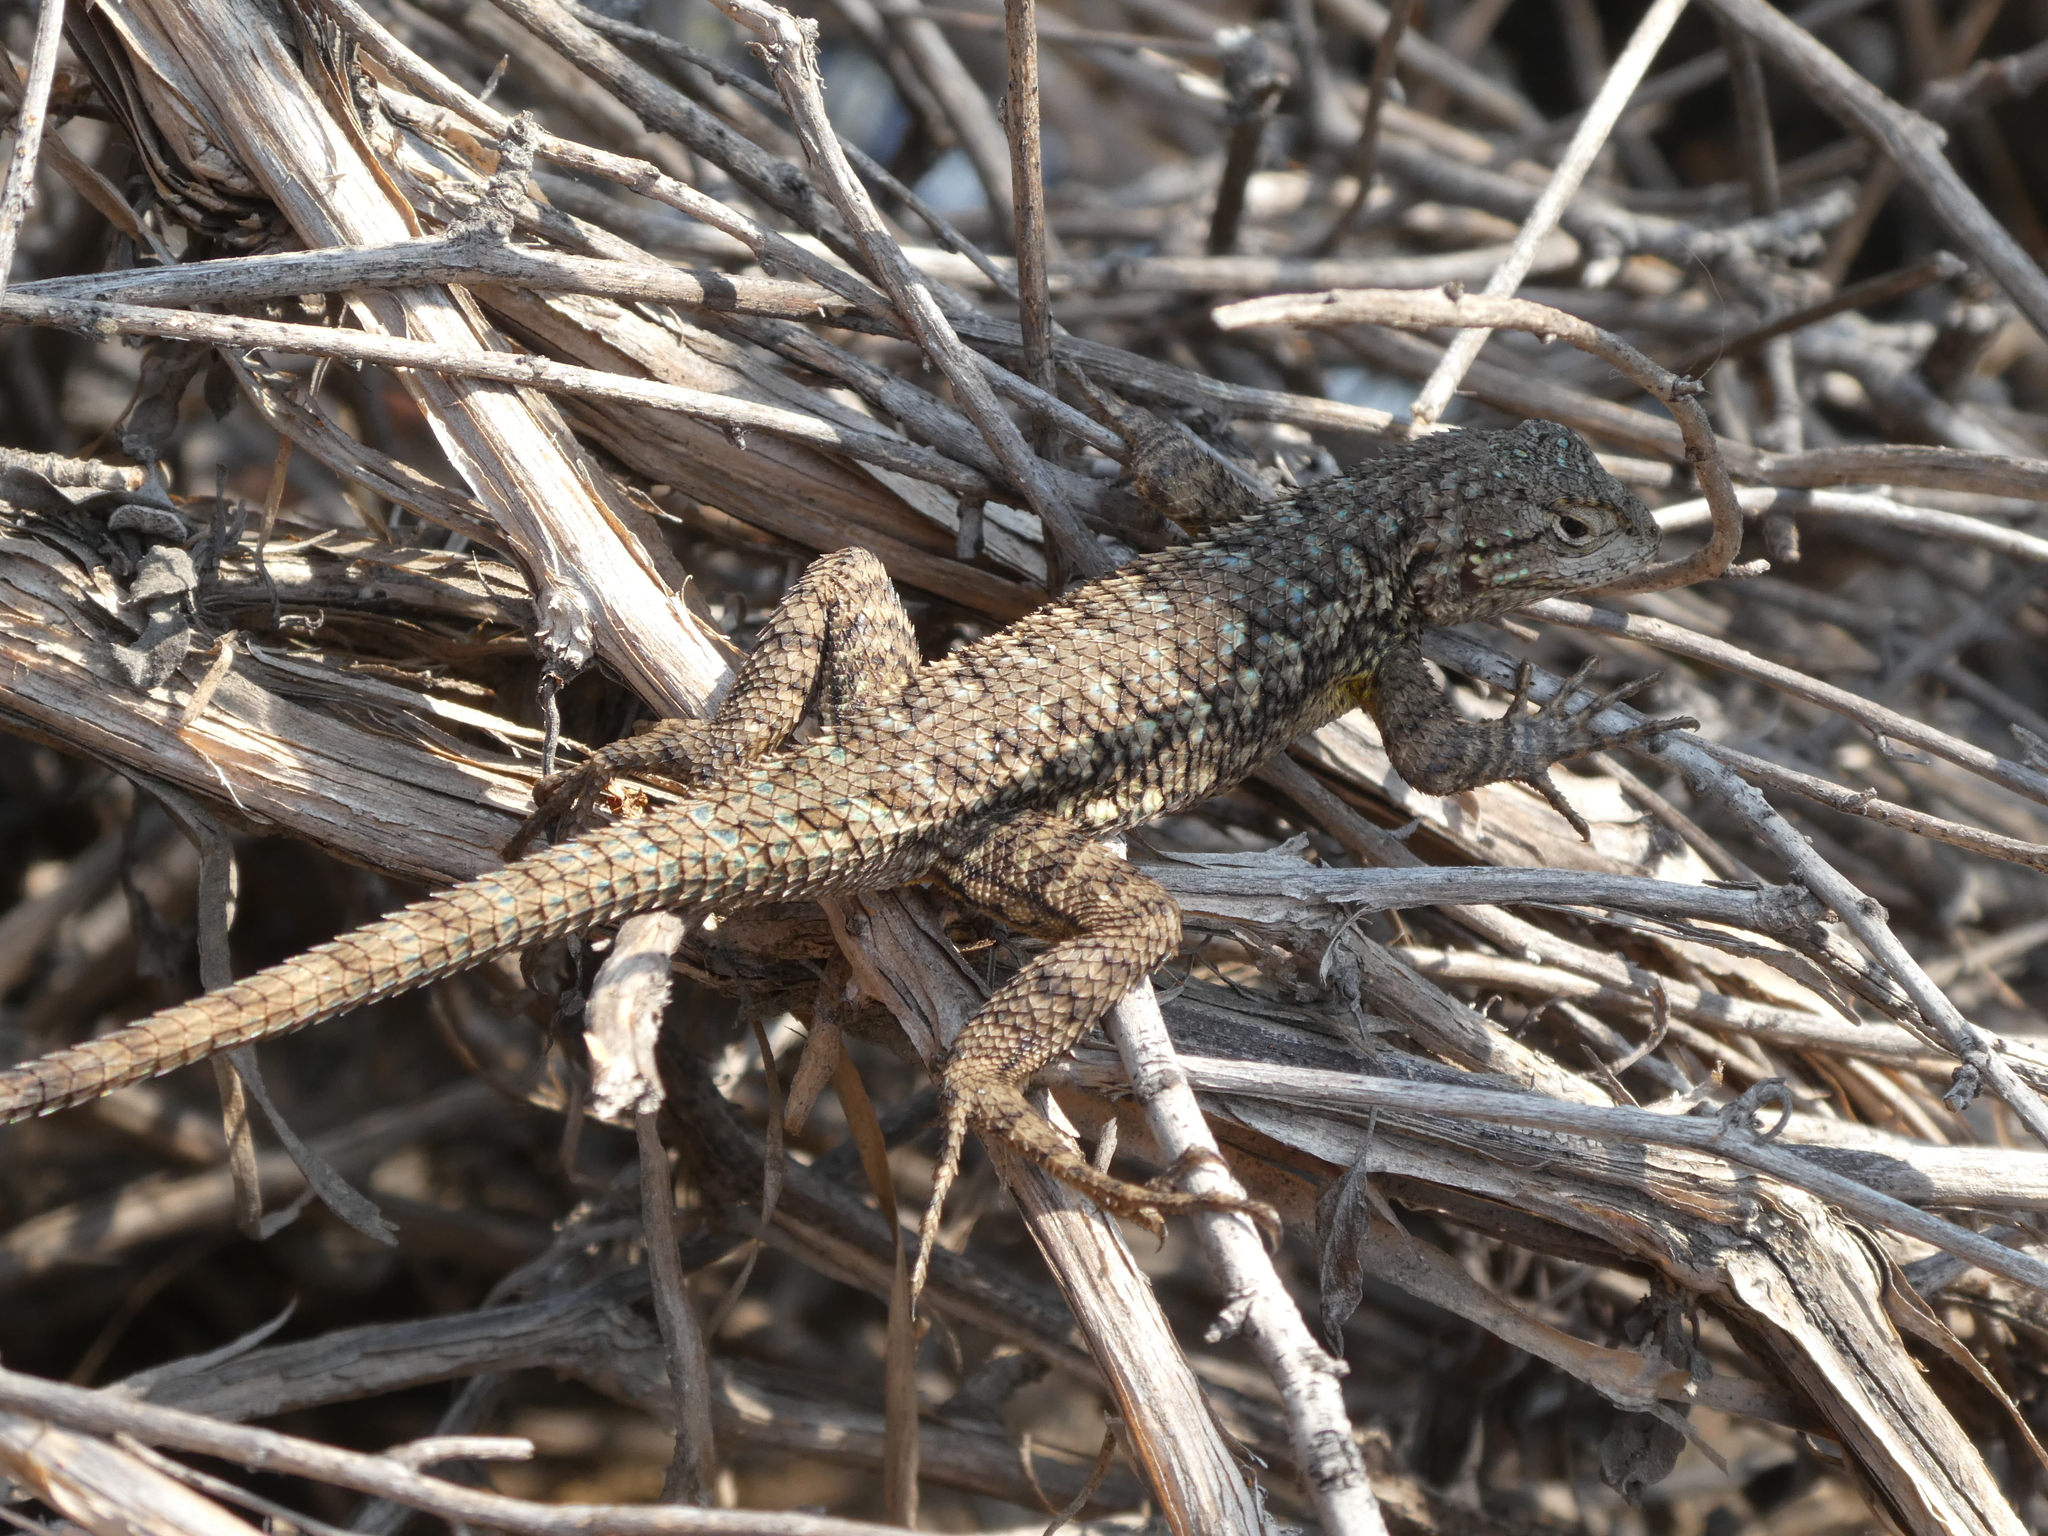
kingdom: Animalia
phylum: Chordata
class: Squamata
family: Phrynosomatidae
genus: Sceloporus
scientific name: Sceloporus occidentalis
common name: Western fence lizard
